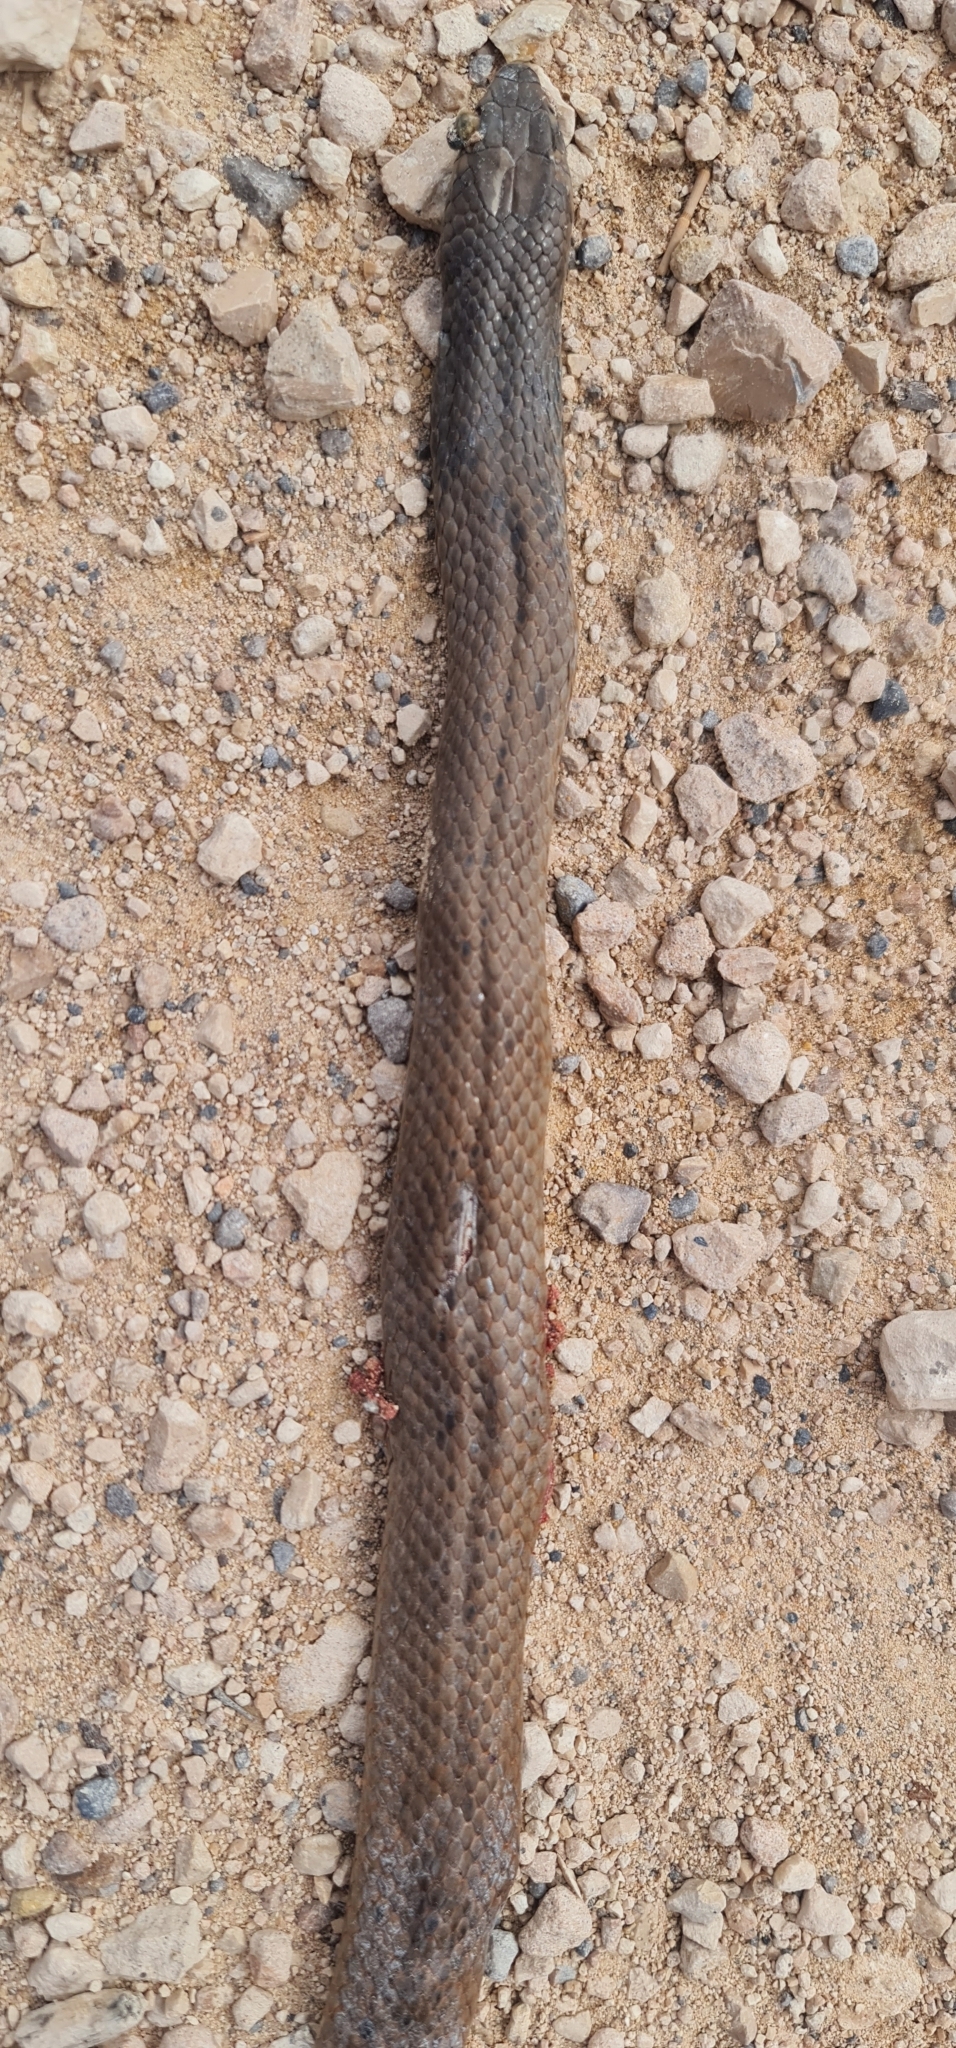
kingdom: Animalia
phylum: Chordata
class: Squamata
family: Elapidae
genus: Pseudonaja
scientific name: Pseudonaja inframacula
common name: Peninsula brown snake
